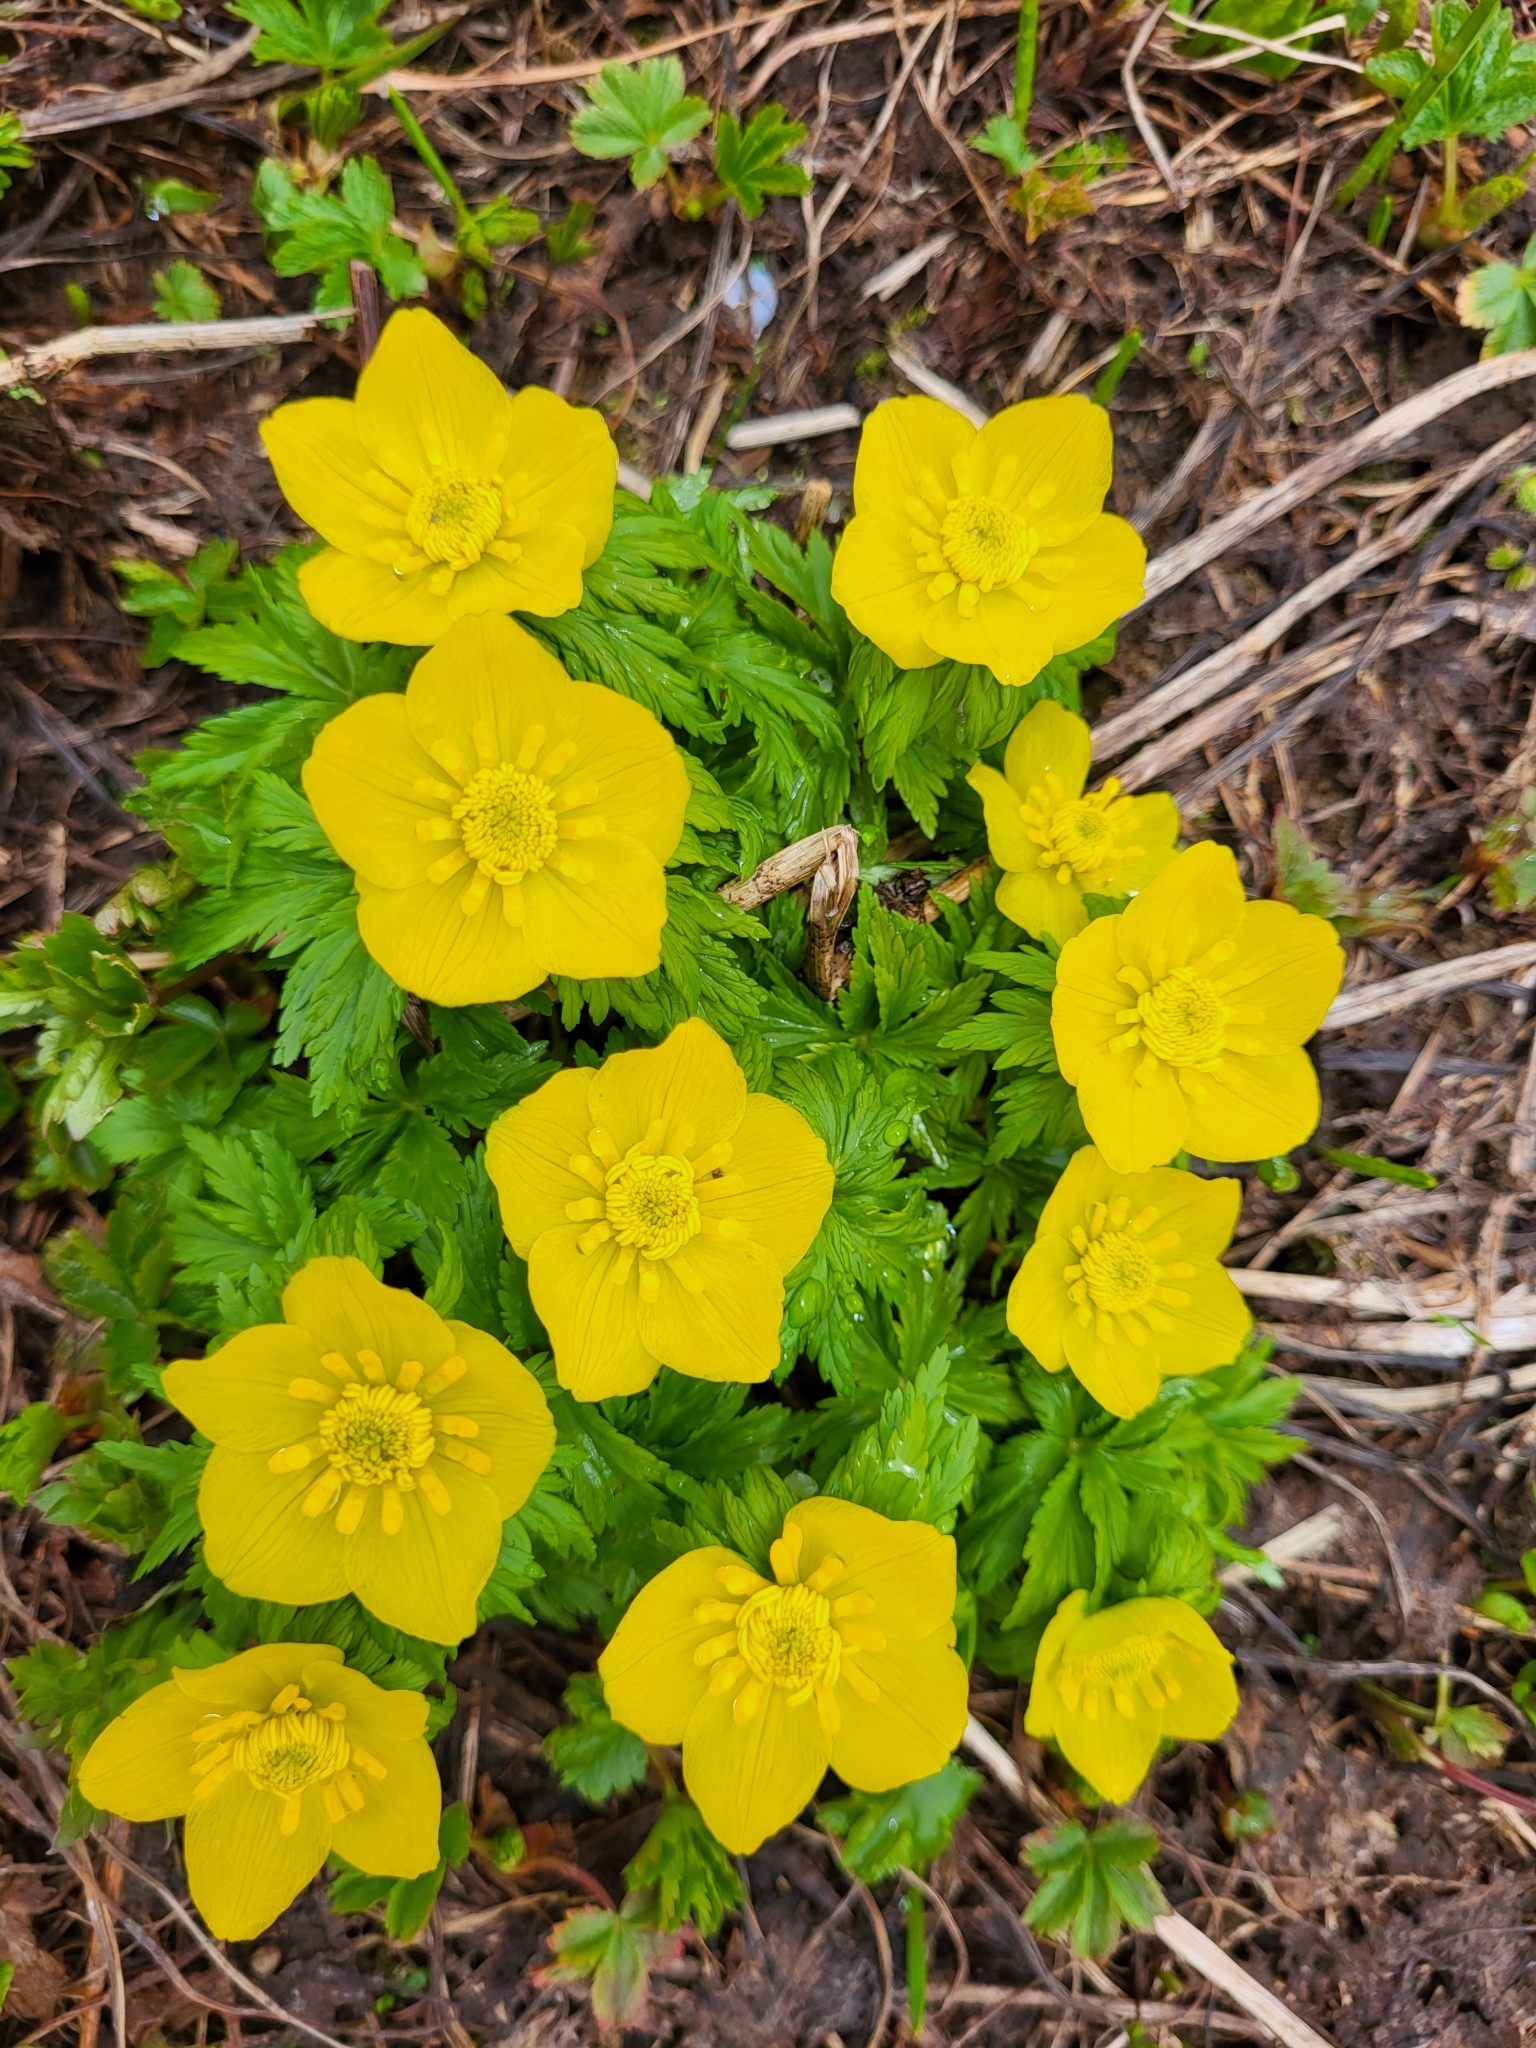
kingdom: Plantae
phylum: Tracheophyta
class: Magnoliopsida
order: Ranunculales
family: Ranunculaceae
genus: Trollius
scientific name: Trollius ranunculinus
